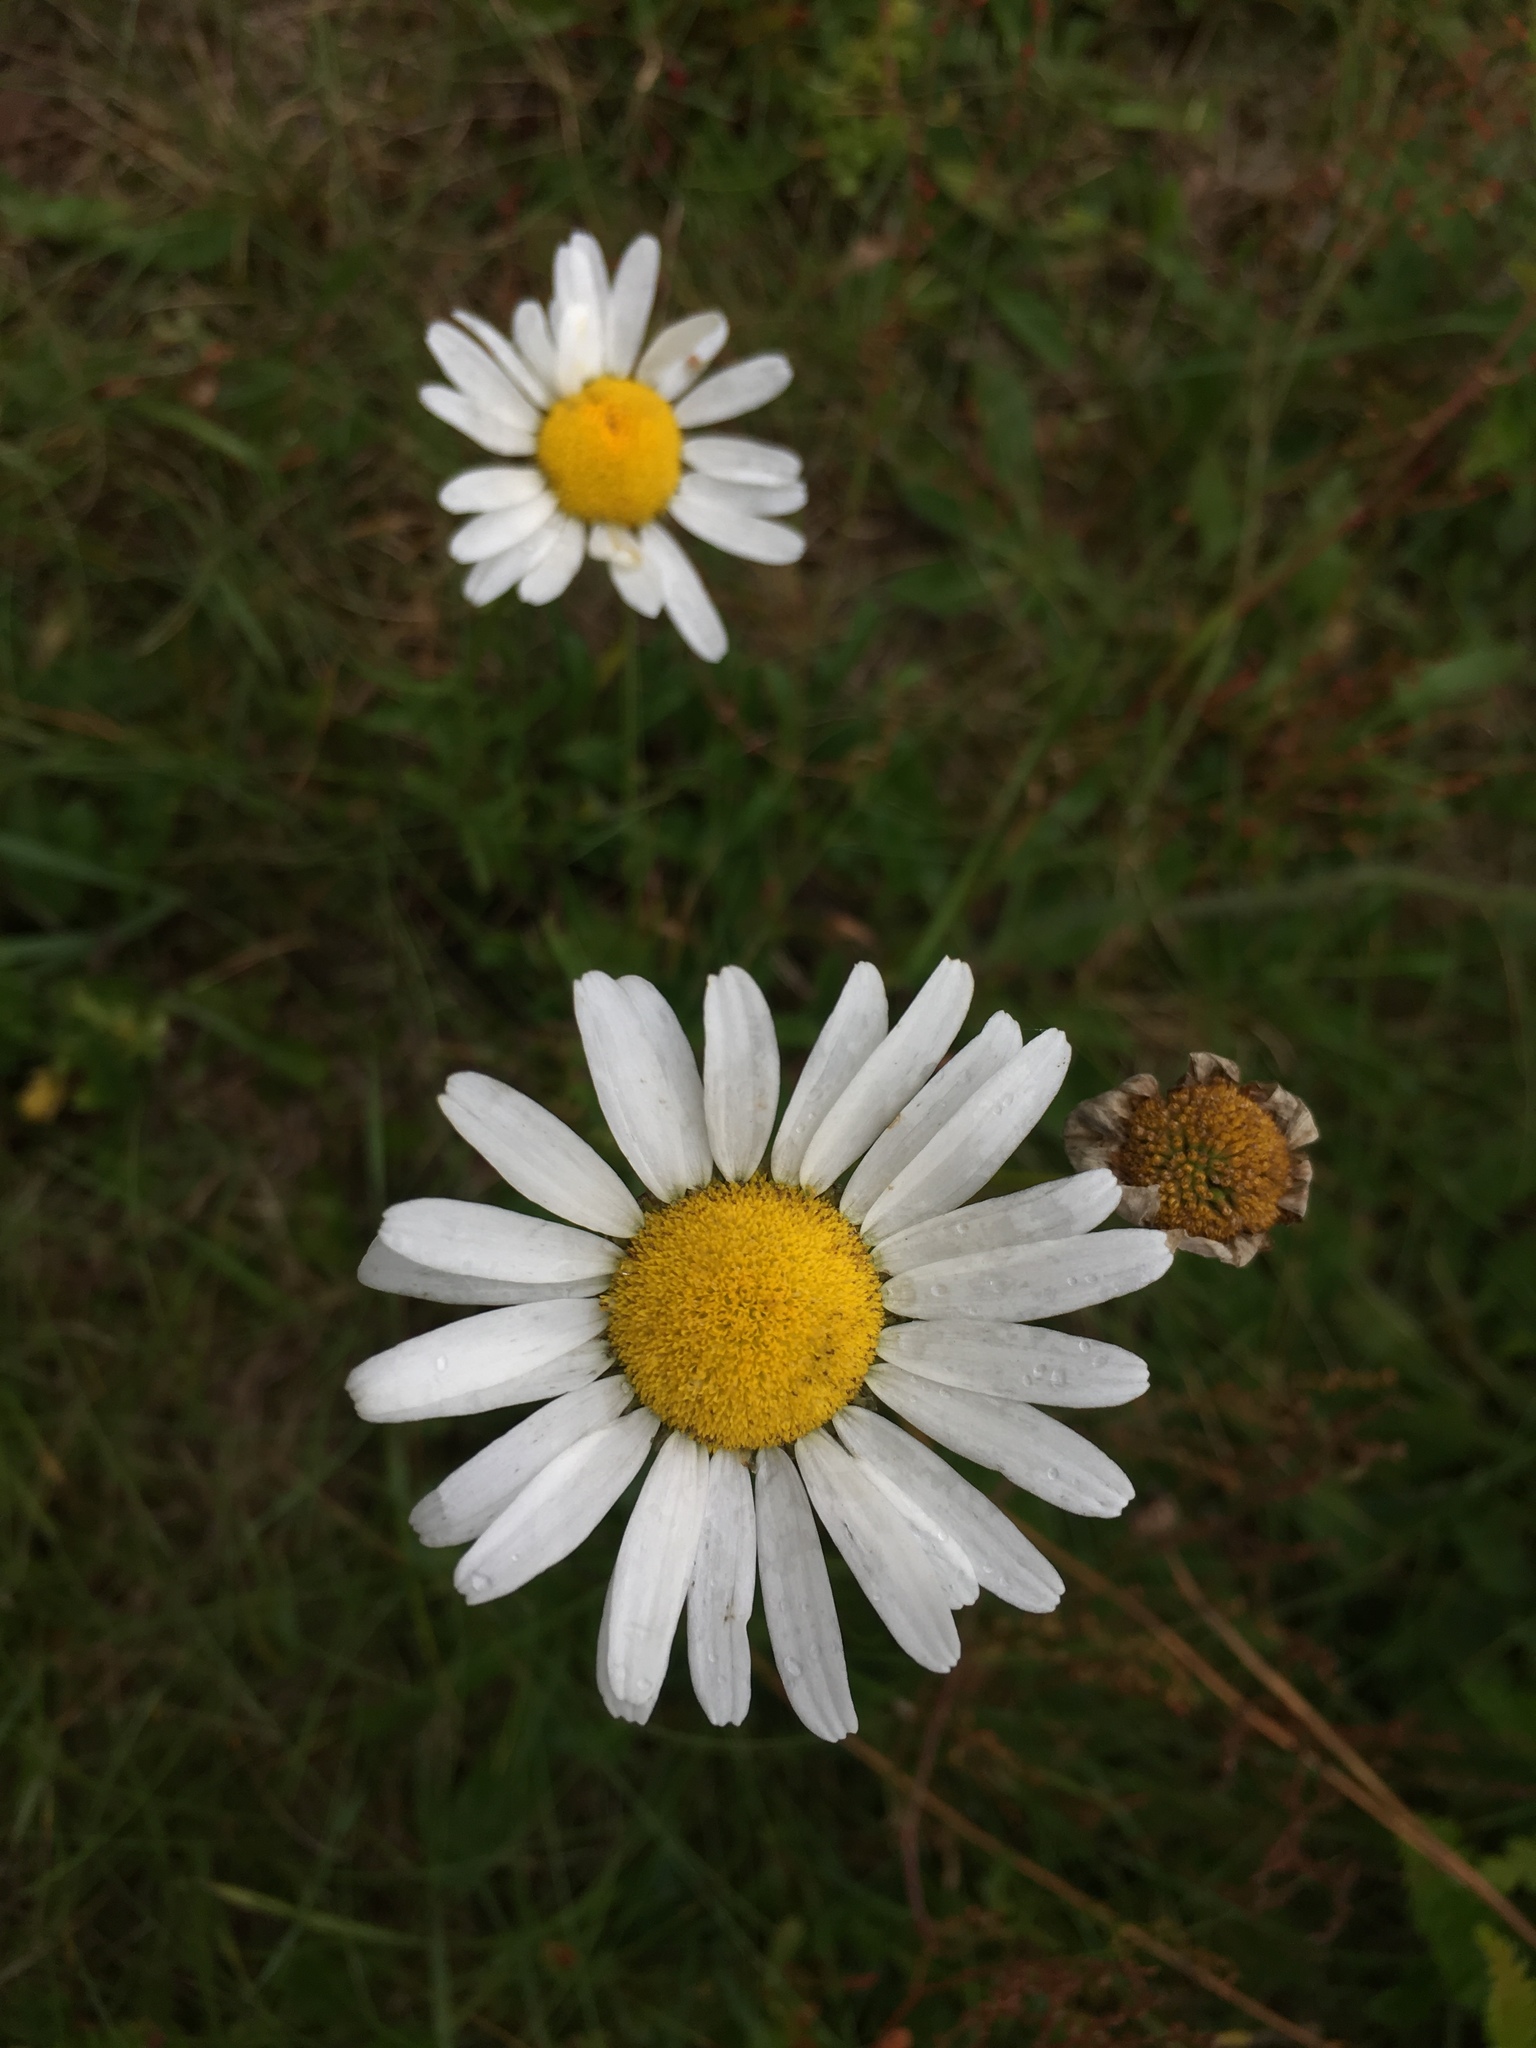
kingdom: Plantae
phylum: Tracheophyta
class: Magnoliopsida
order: Asterales
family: Asteraceae
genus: Leucanthemum
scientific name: Leucanthemum vulgare
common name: Oxeye daisy
